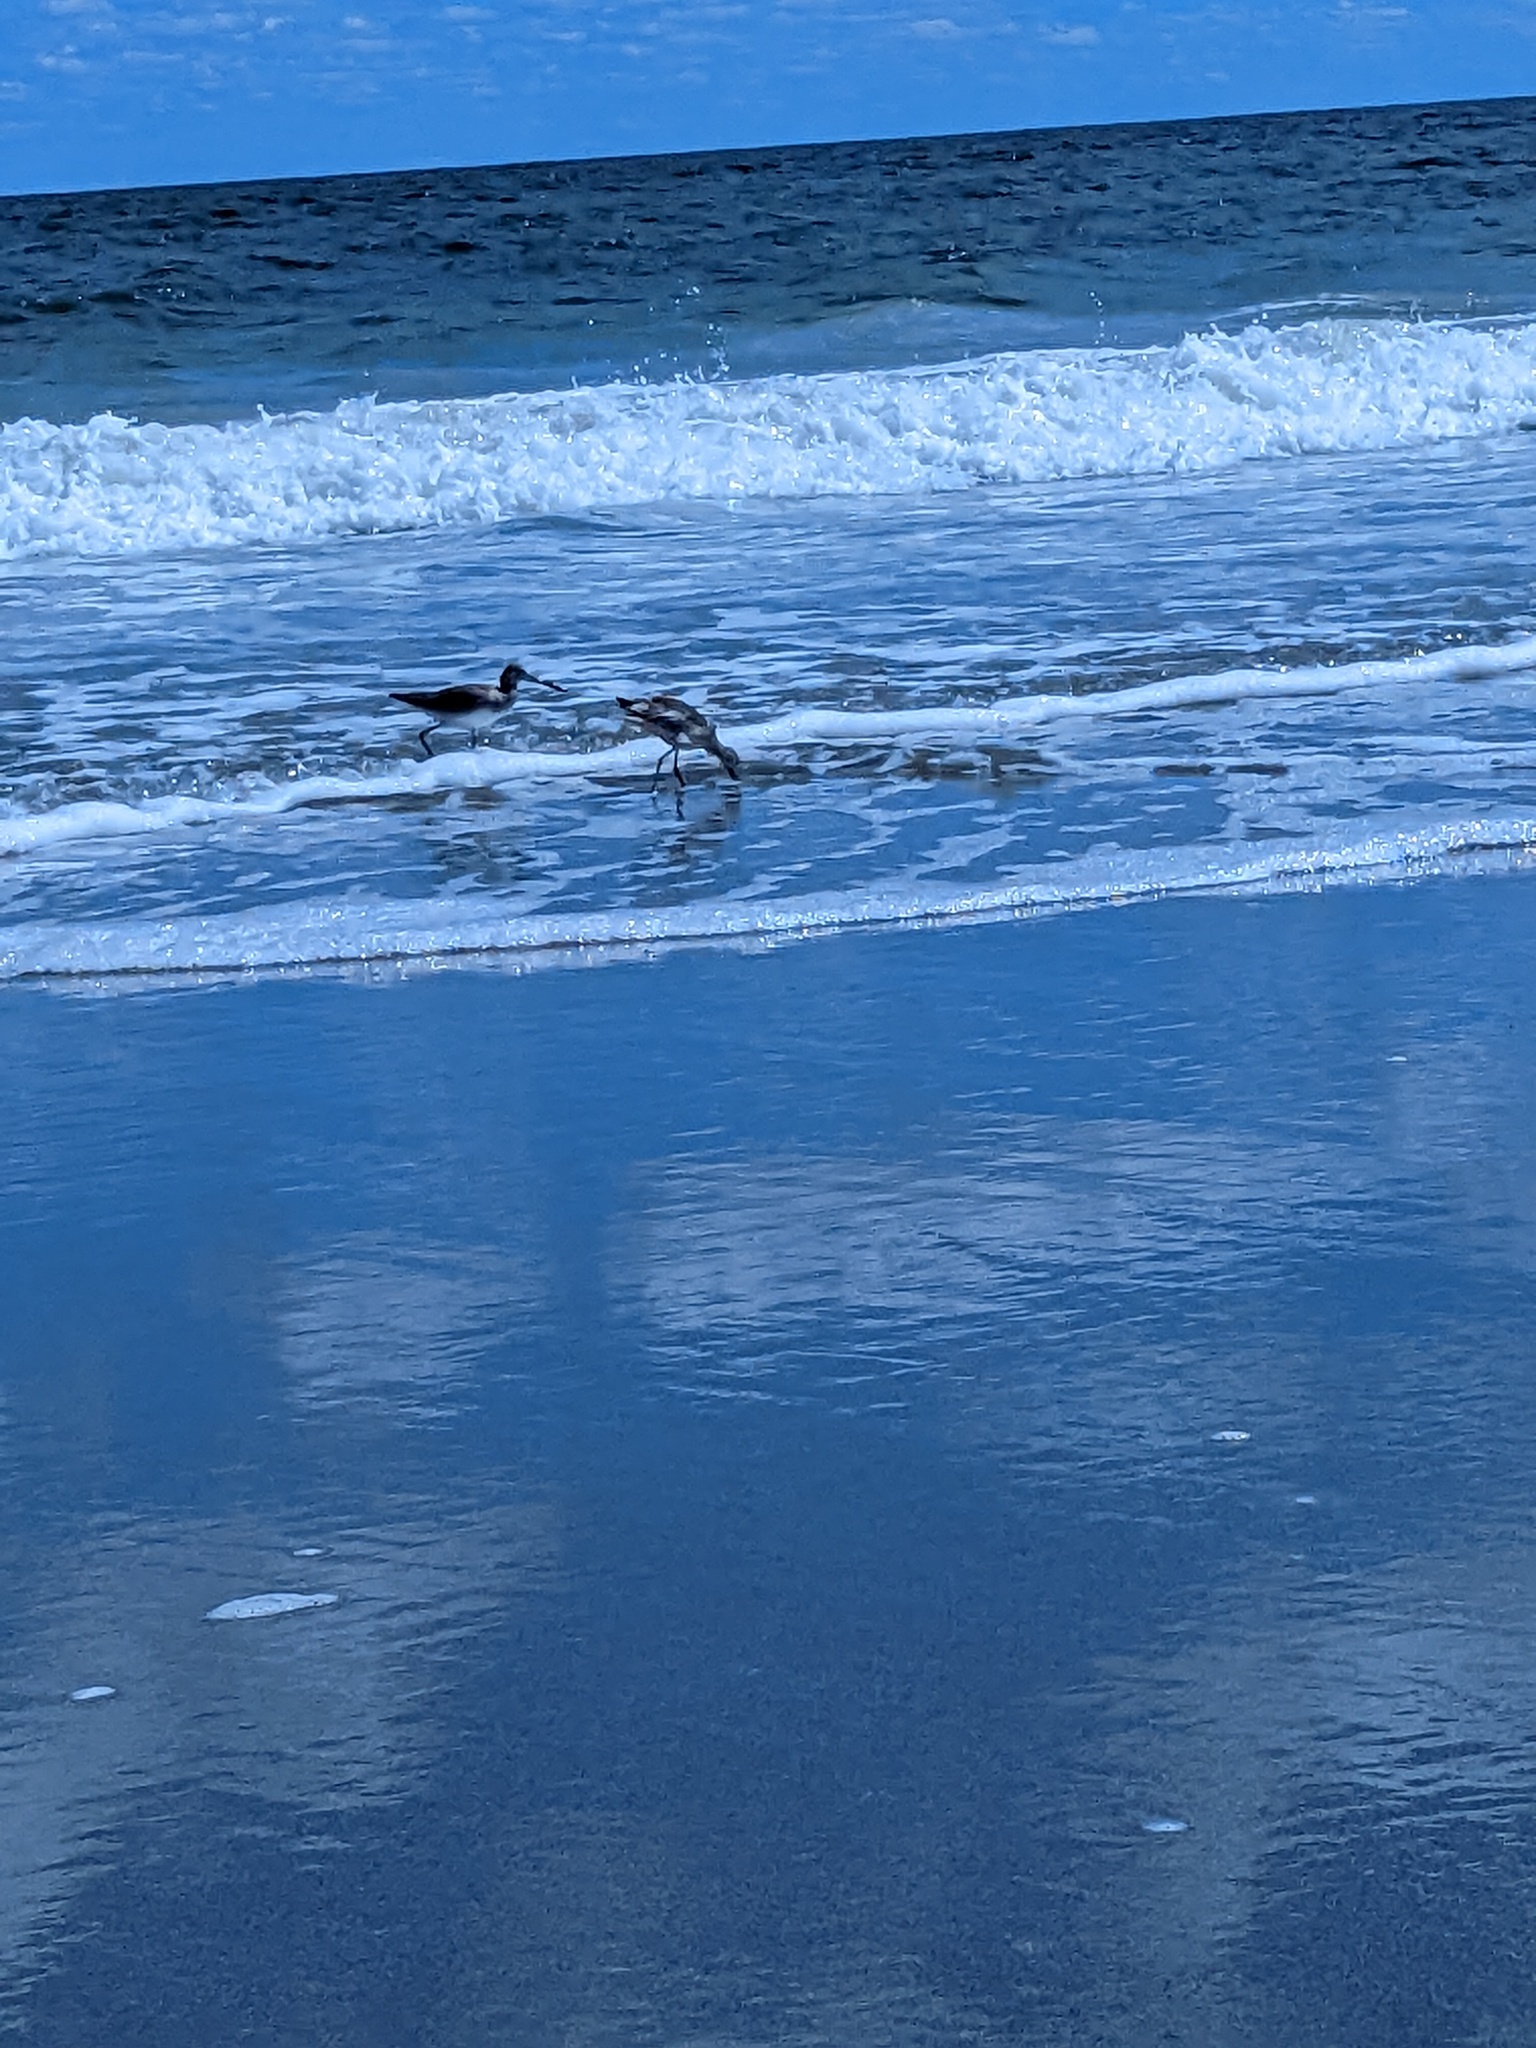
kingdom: Animalia
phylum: Chordata
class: Aves
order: Charadriiformes
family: Scolopacidae
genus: Tringa
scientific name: Tringa semipalmata
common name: Willet
